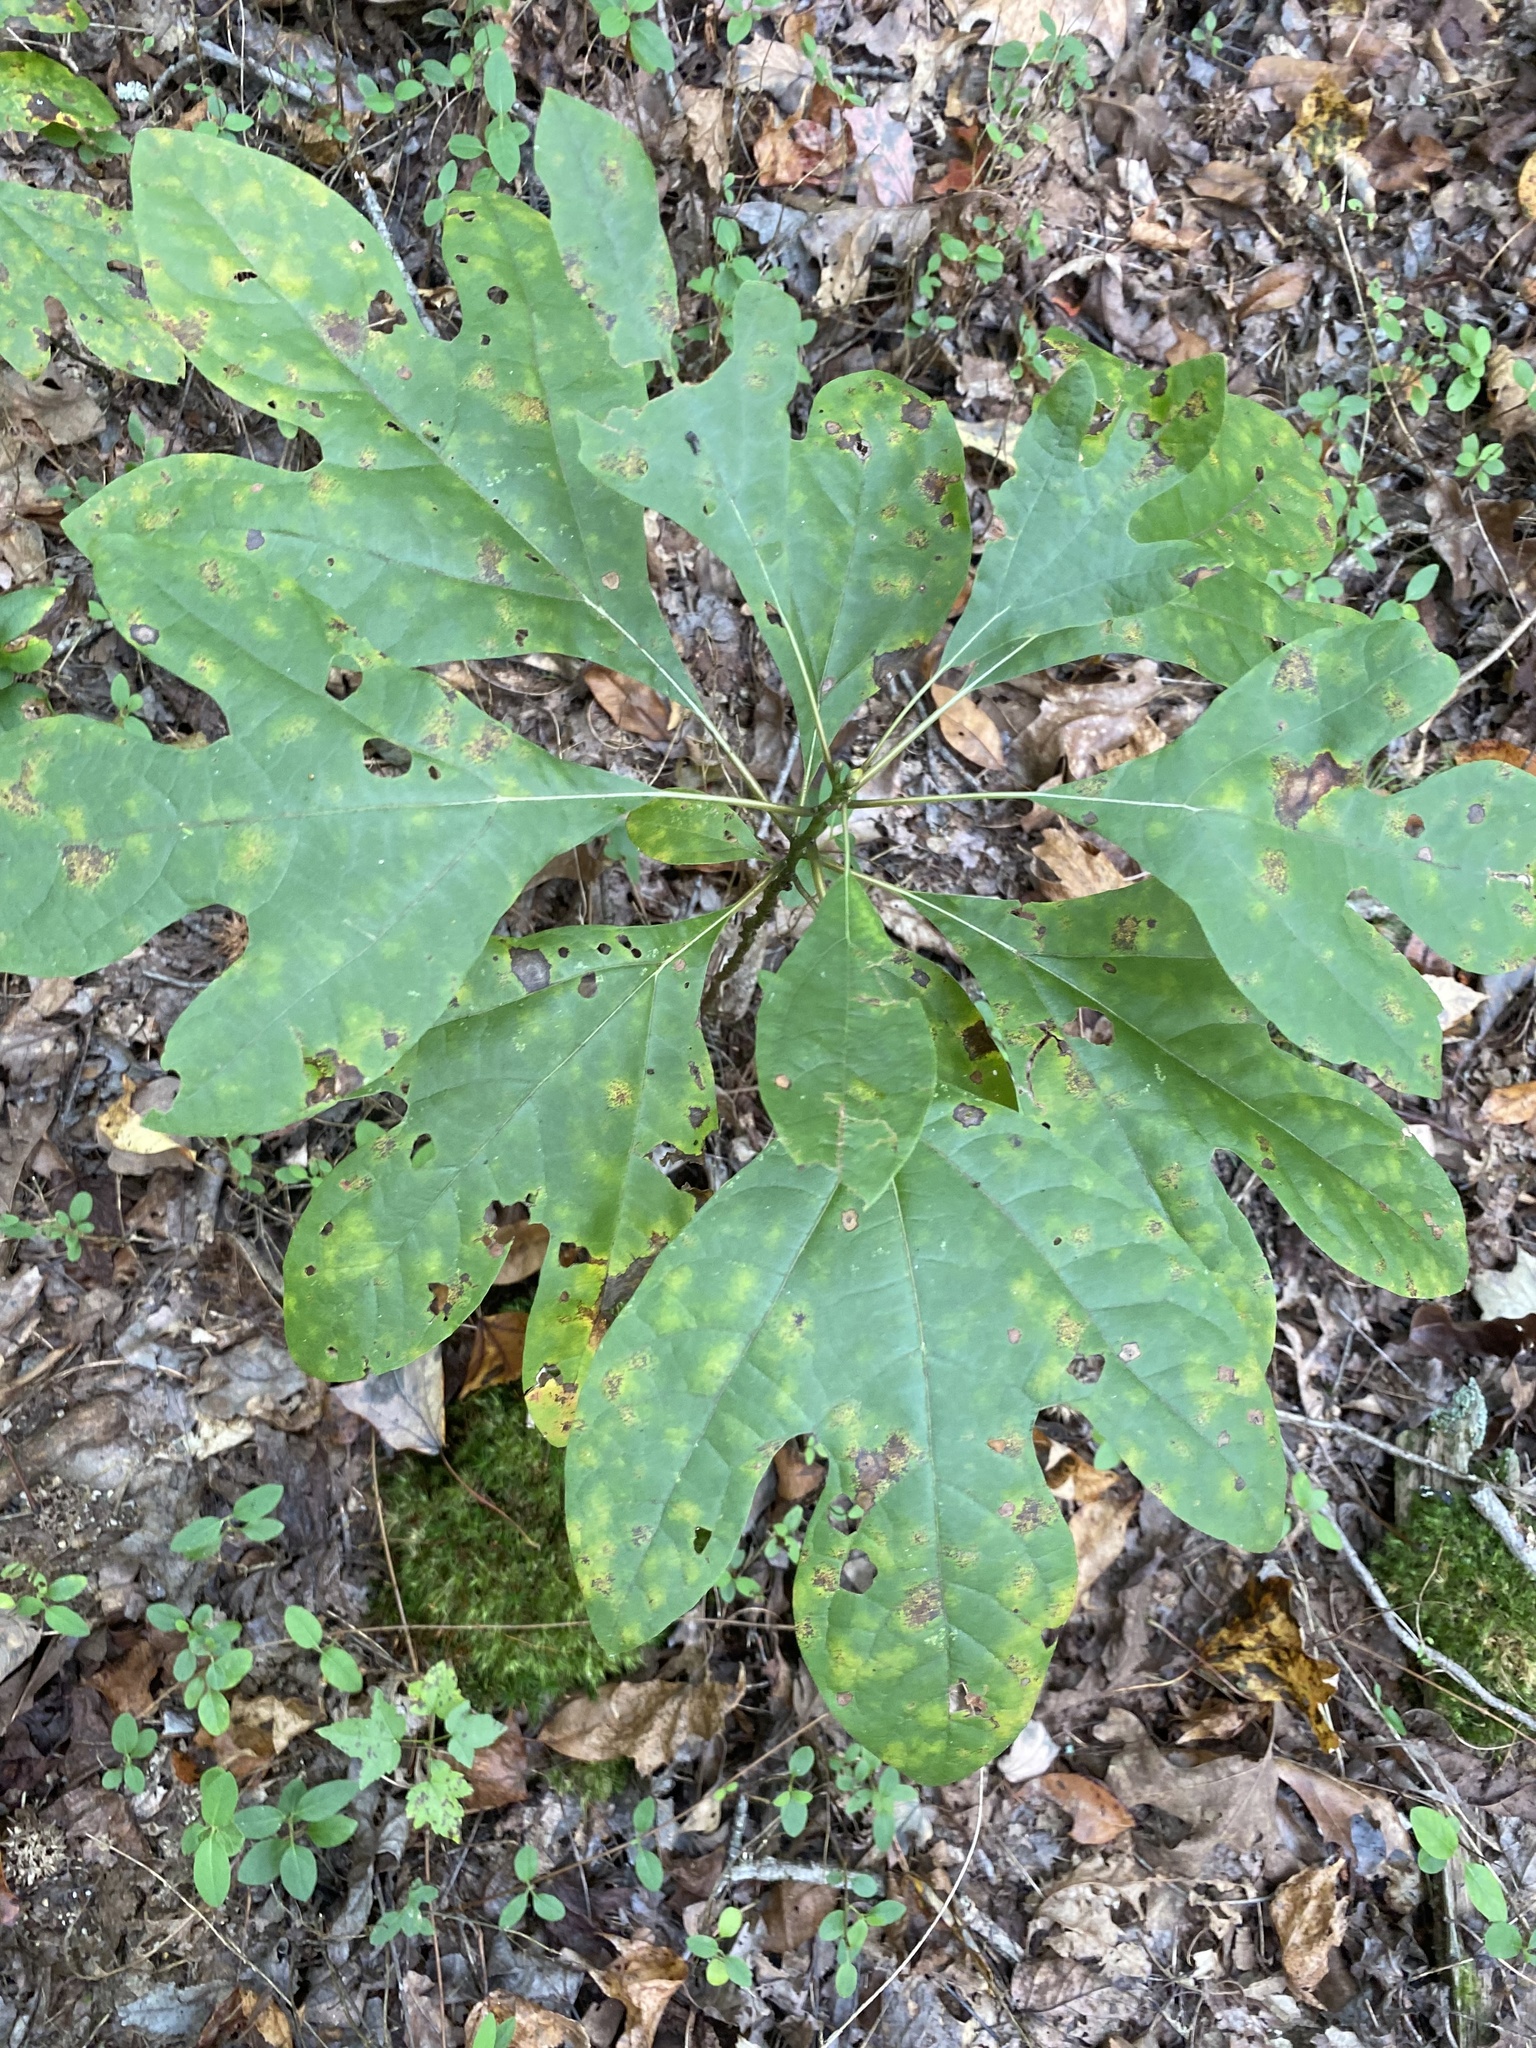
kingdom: Plantae
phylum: Tracheophyta
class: Magnoliopsida
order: Laurales
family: Lauraceae
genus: Sassafras
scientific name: Sassafras albidum
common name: Sassafras
